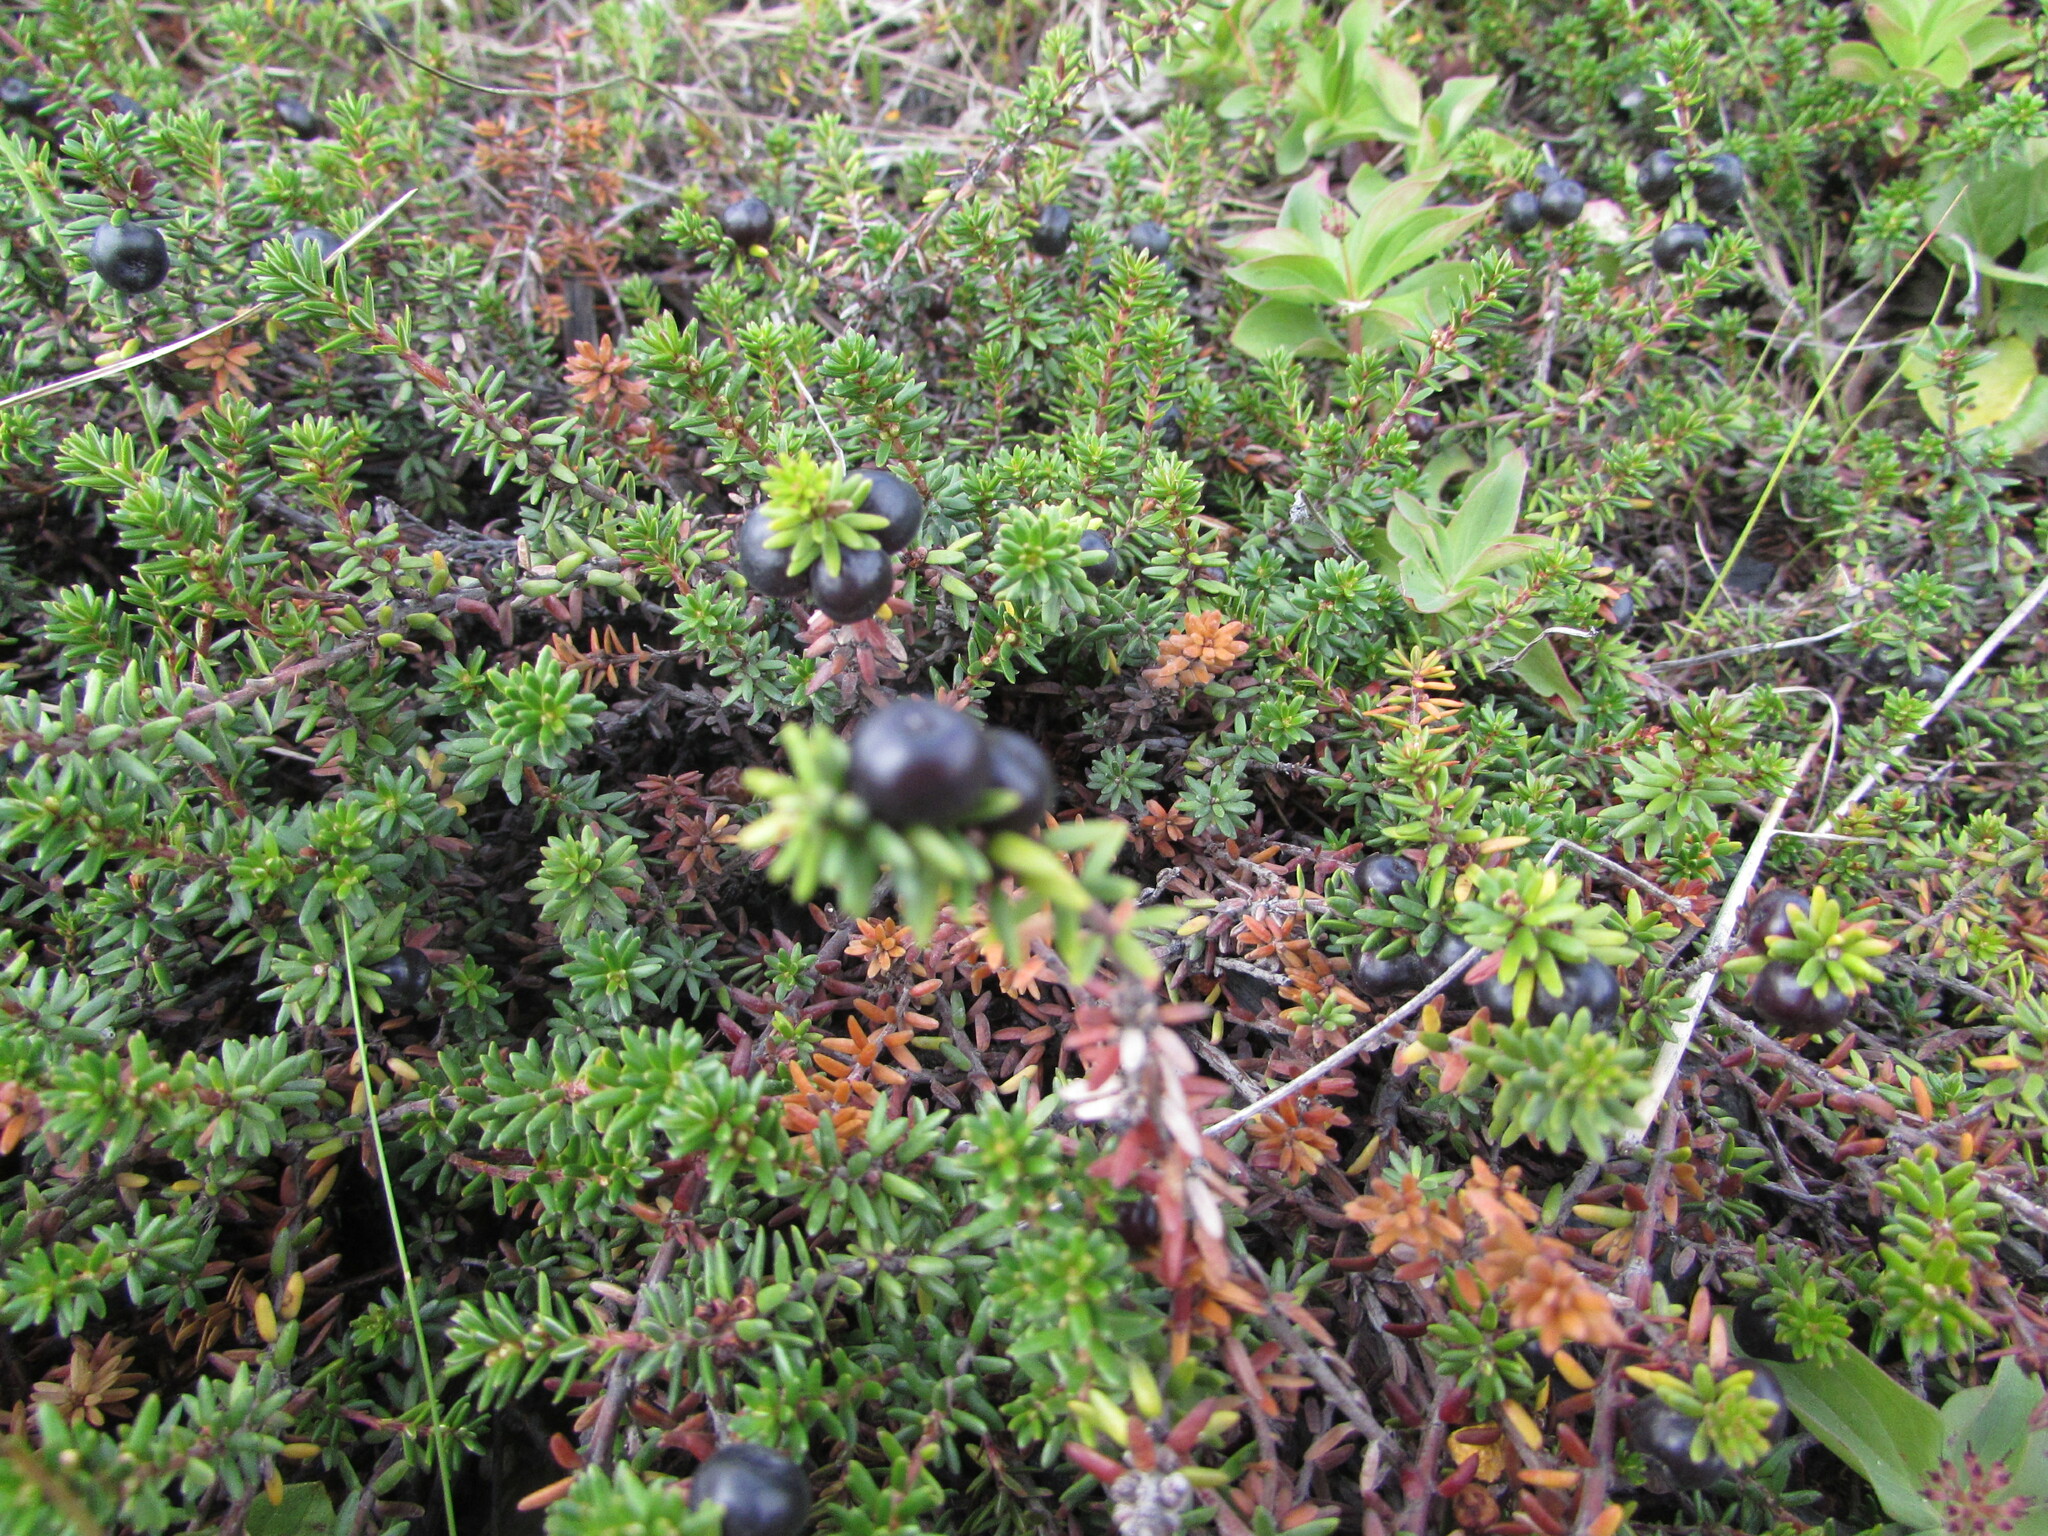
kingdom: Plantae
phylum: Tracheophyta
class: Magnoliopsida
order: Ericales
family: Ericaceae
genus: Empetrum
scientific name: Empetrum nigrum
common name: Black crowberry
